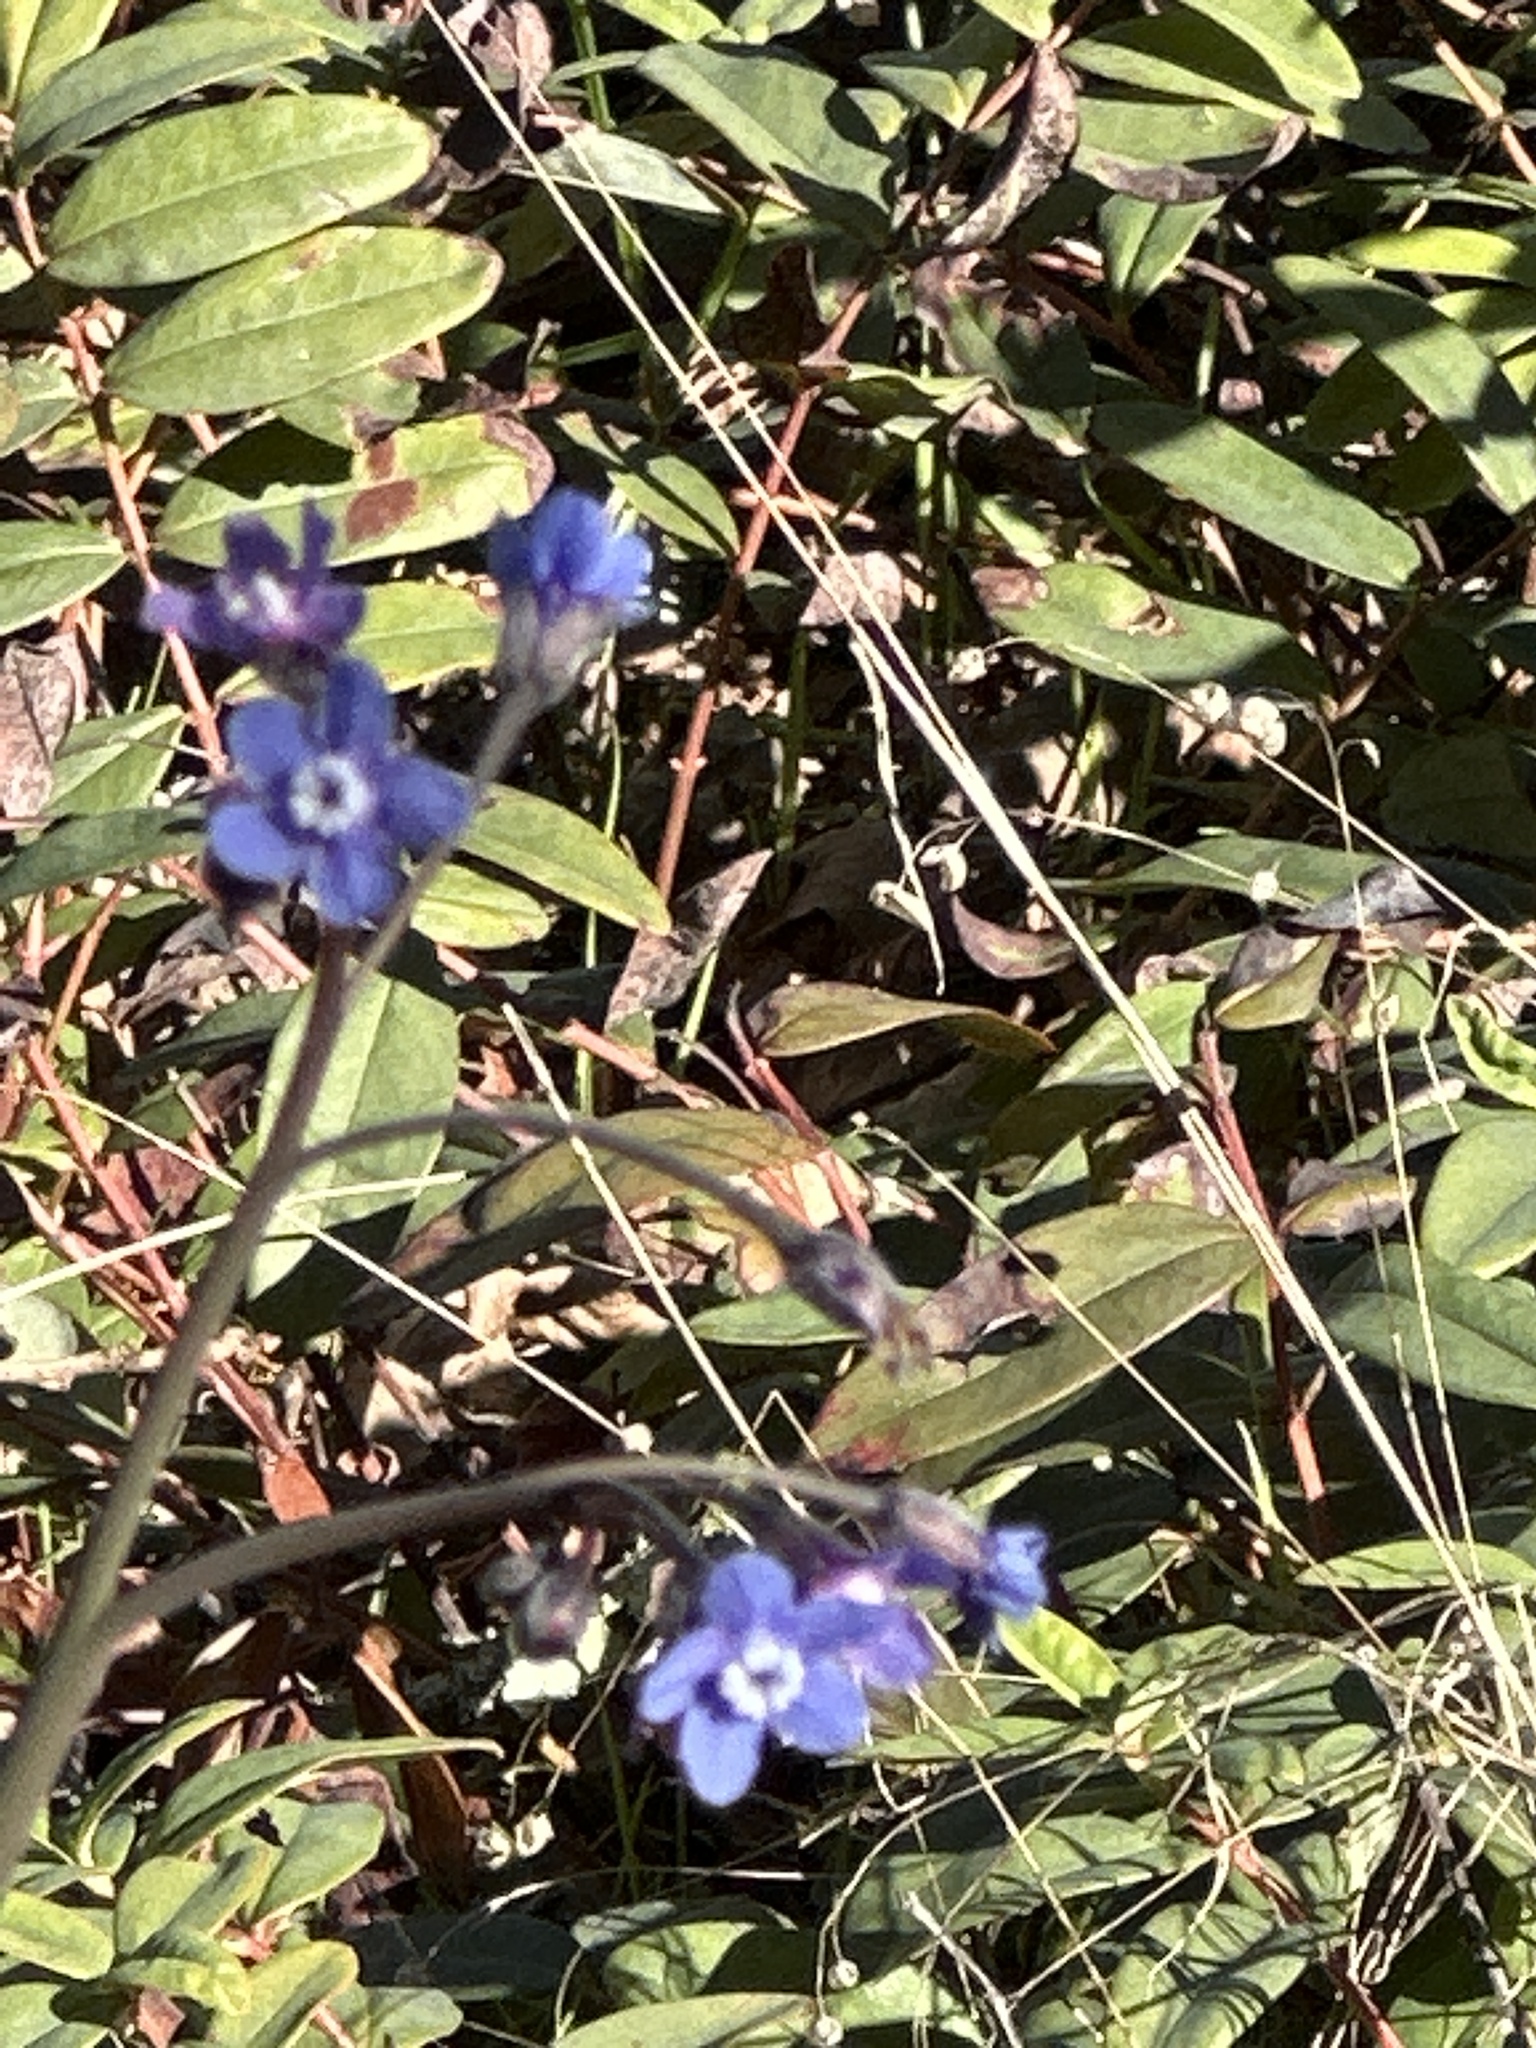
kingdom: Plantae
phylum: Tracheophyta
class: Magnoliopsida
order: Boraginales
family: Boraginaceae
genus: Adelinia
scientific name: Adelinia grande
